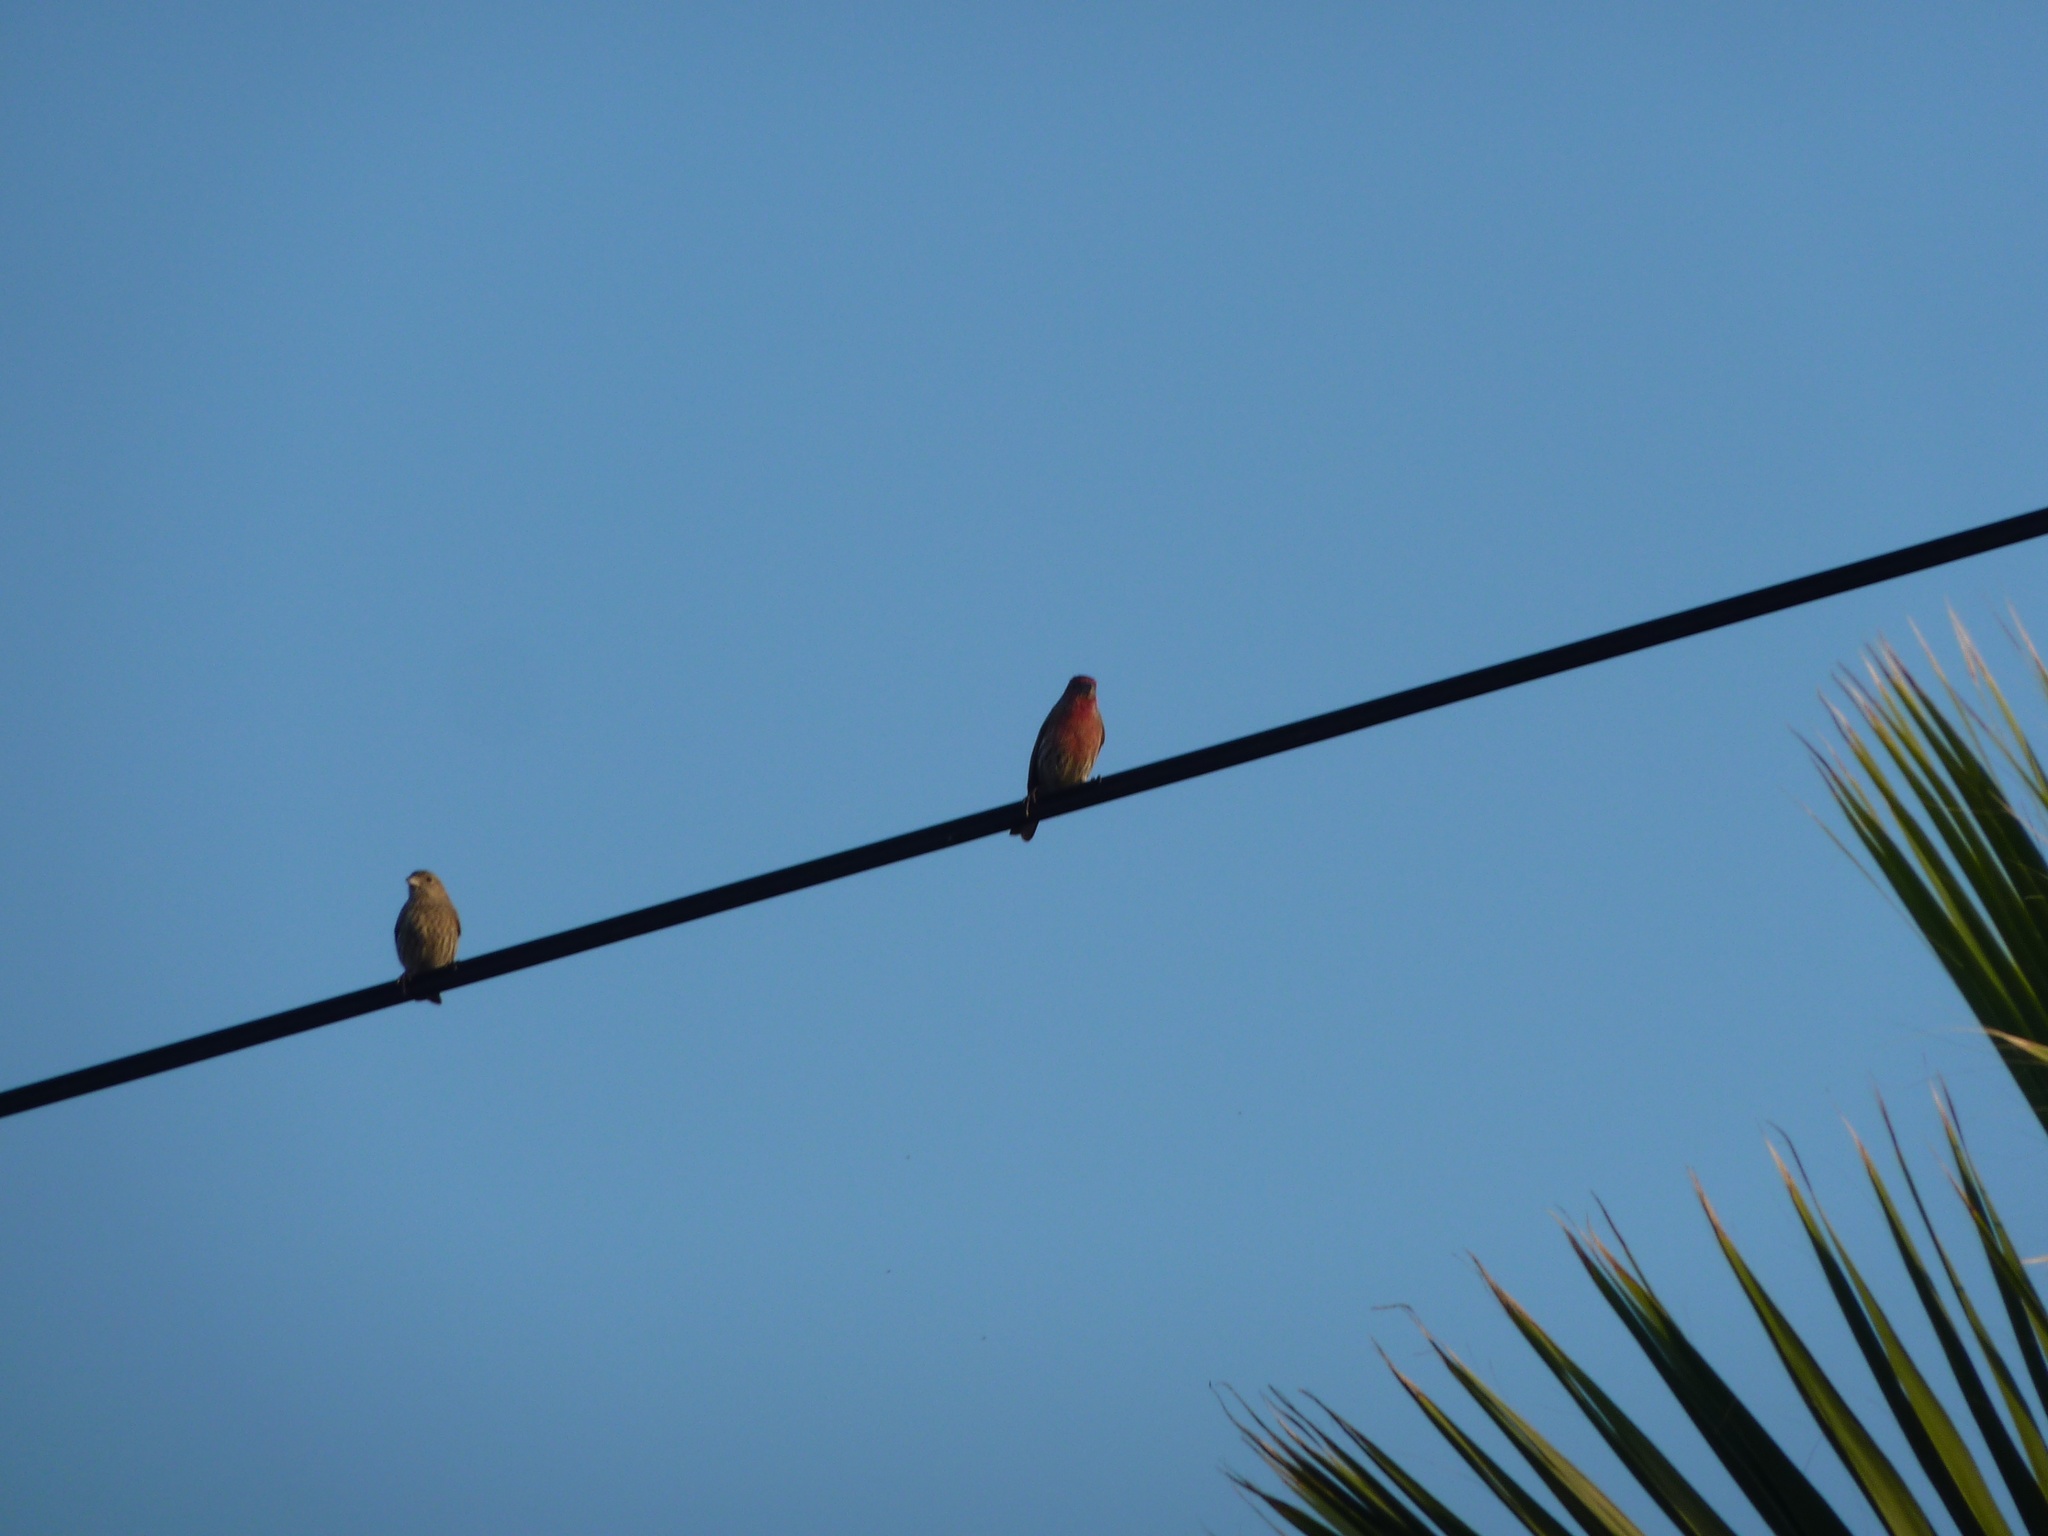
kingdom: Animalia
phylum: Chordata
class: Aves
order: Passeriformes
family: Fringillidae
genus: Haemorhous
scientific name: Haemorhous mexicanus
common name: House finch
